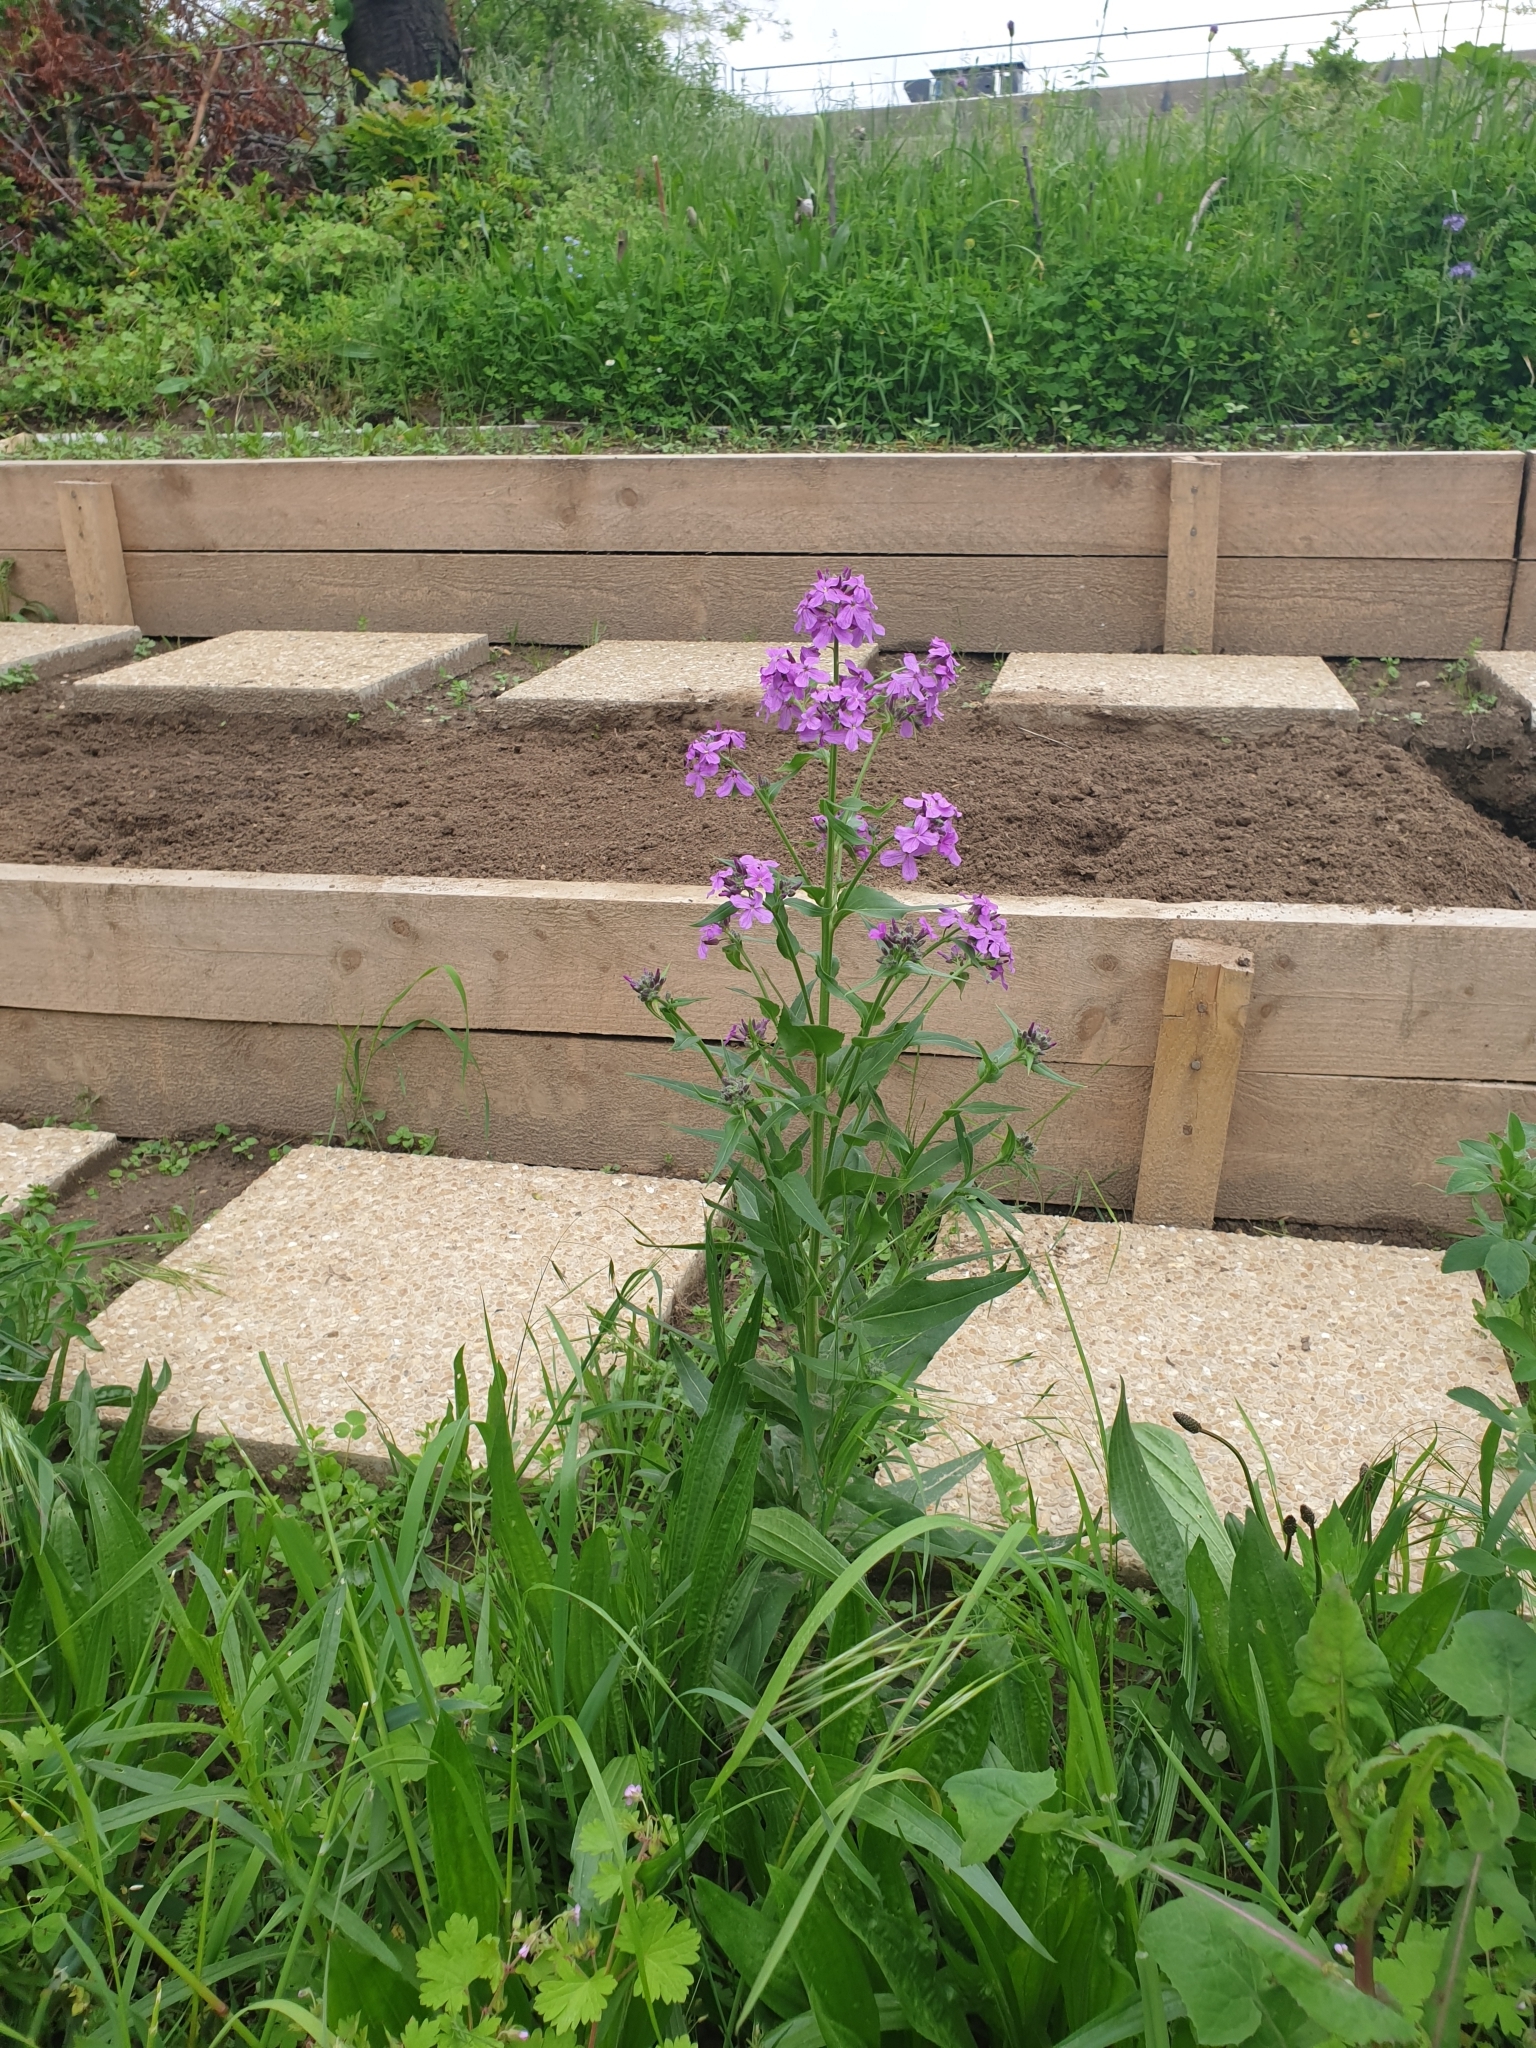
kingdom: Plantae
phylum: Tracheophyta
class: Magnoliopsida
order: Brassicales
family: Brassicaceae
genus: Hesperis
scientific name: Hesperis matronalis
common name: Dame's-violet
